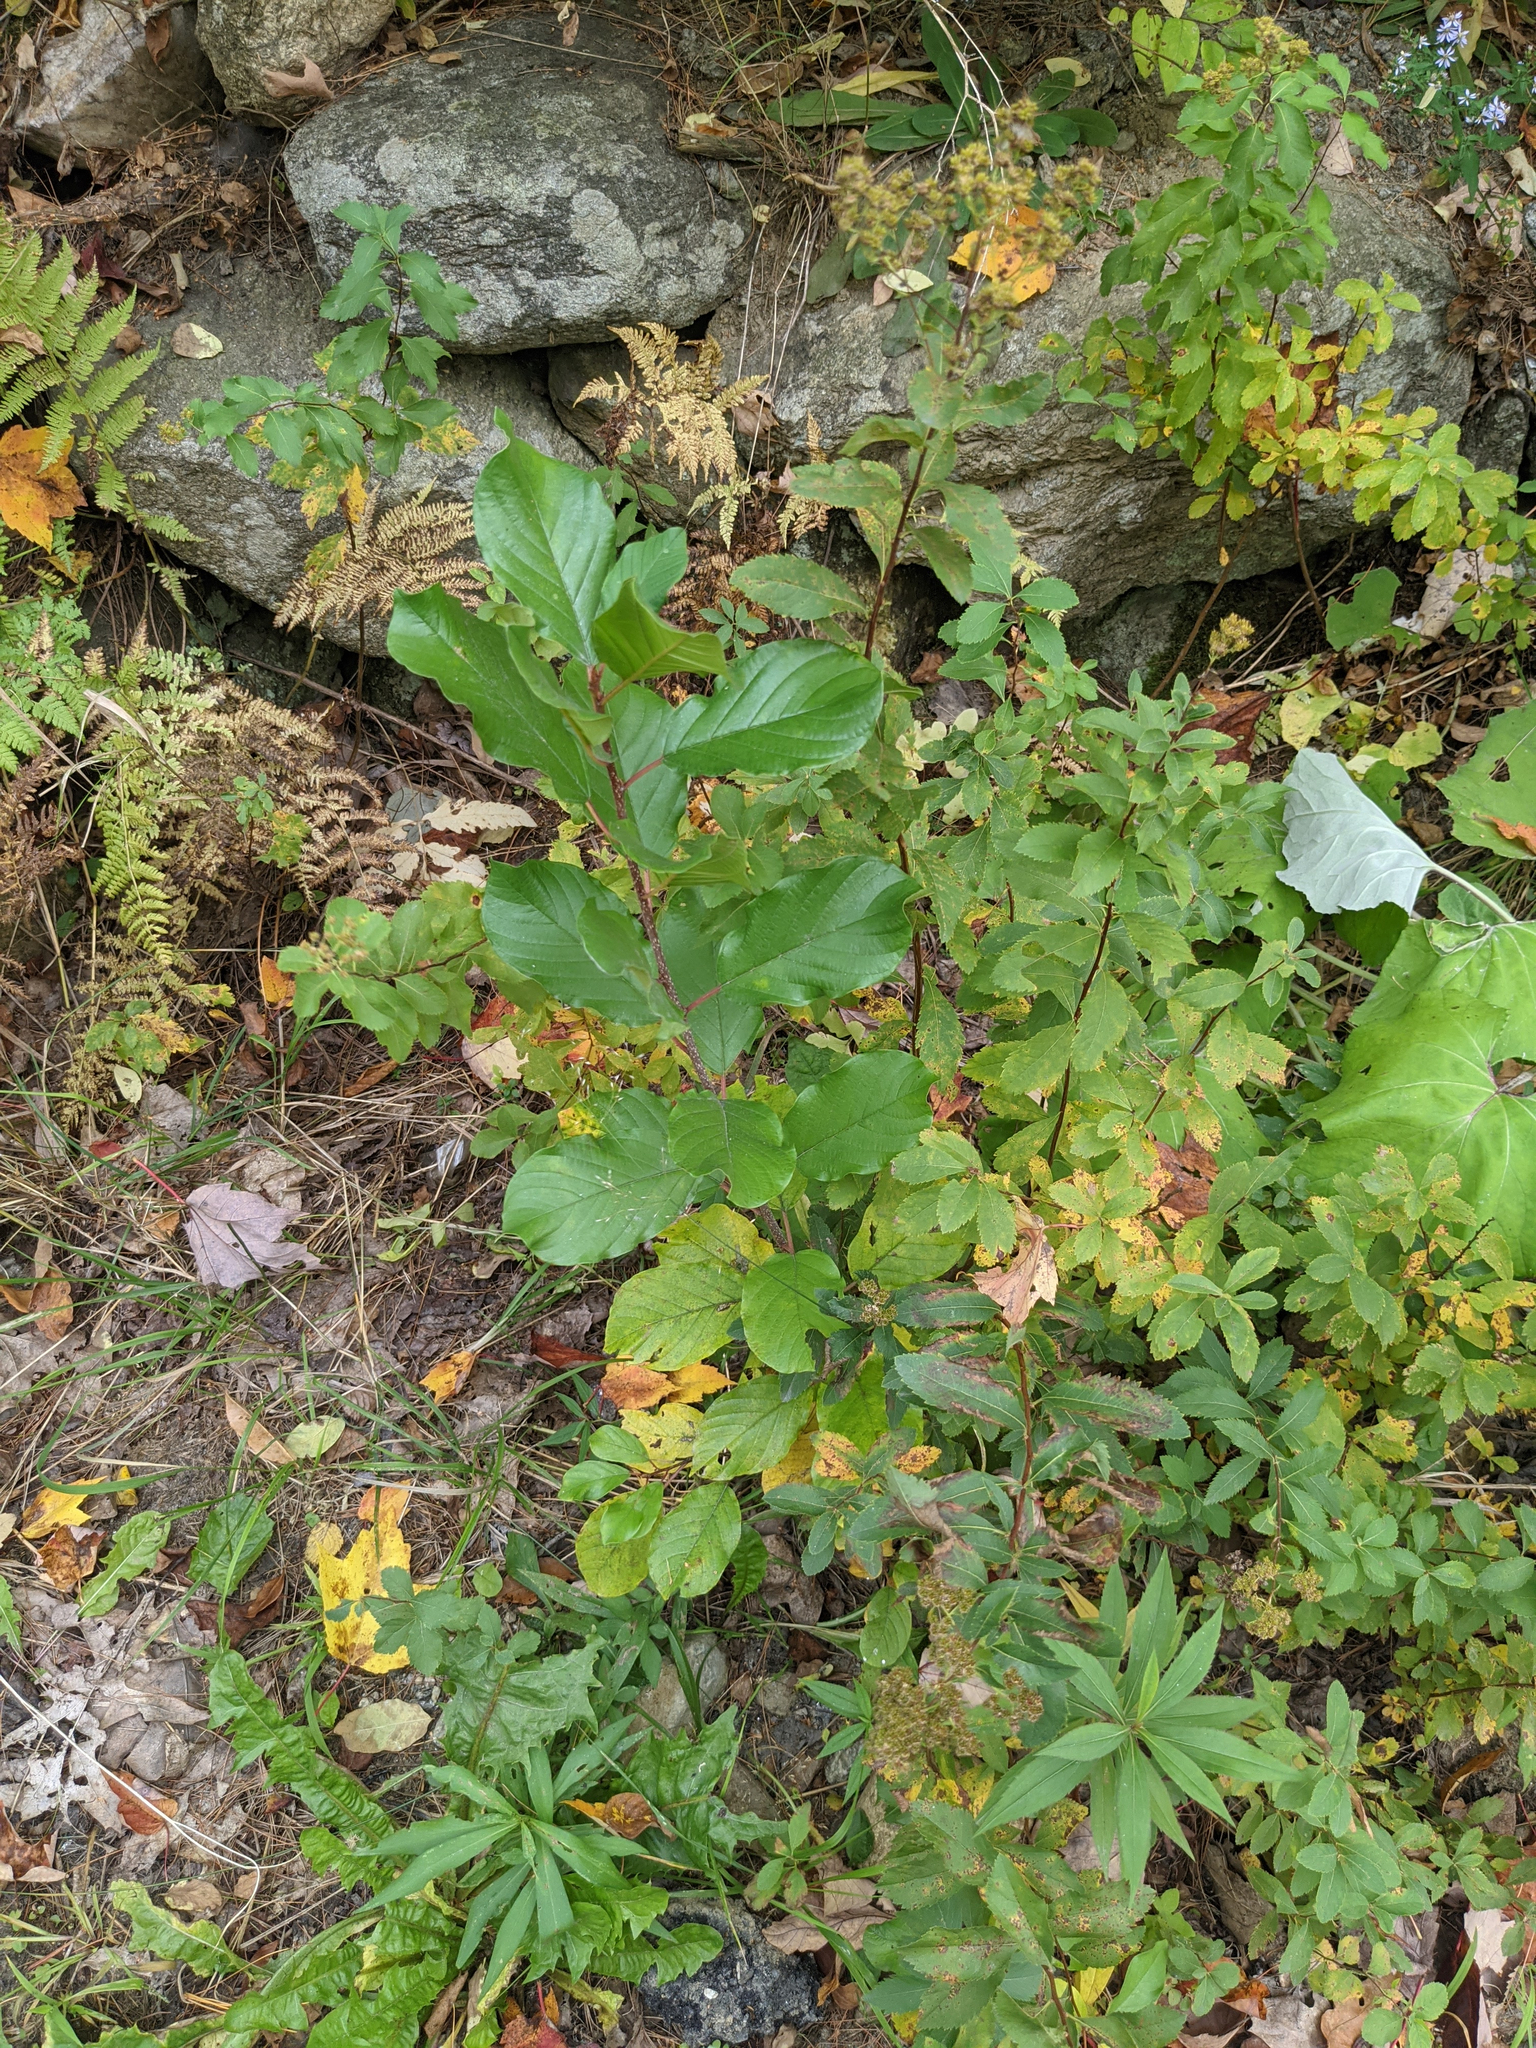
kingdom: Plantae
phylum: Tracheophyta
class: Magnoliopsida
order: Rosales
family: Rhamnaceae
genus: Frangula
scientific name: Frangula alnus
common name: Alder buckthorn
